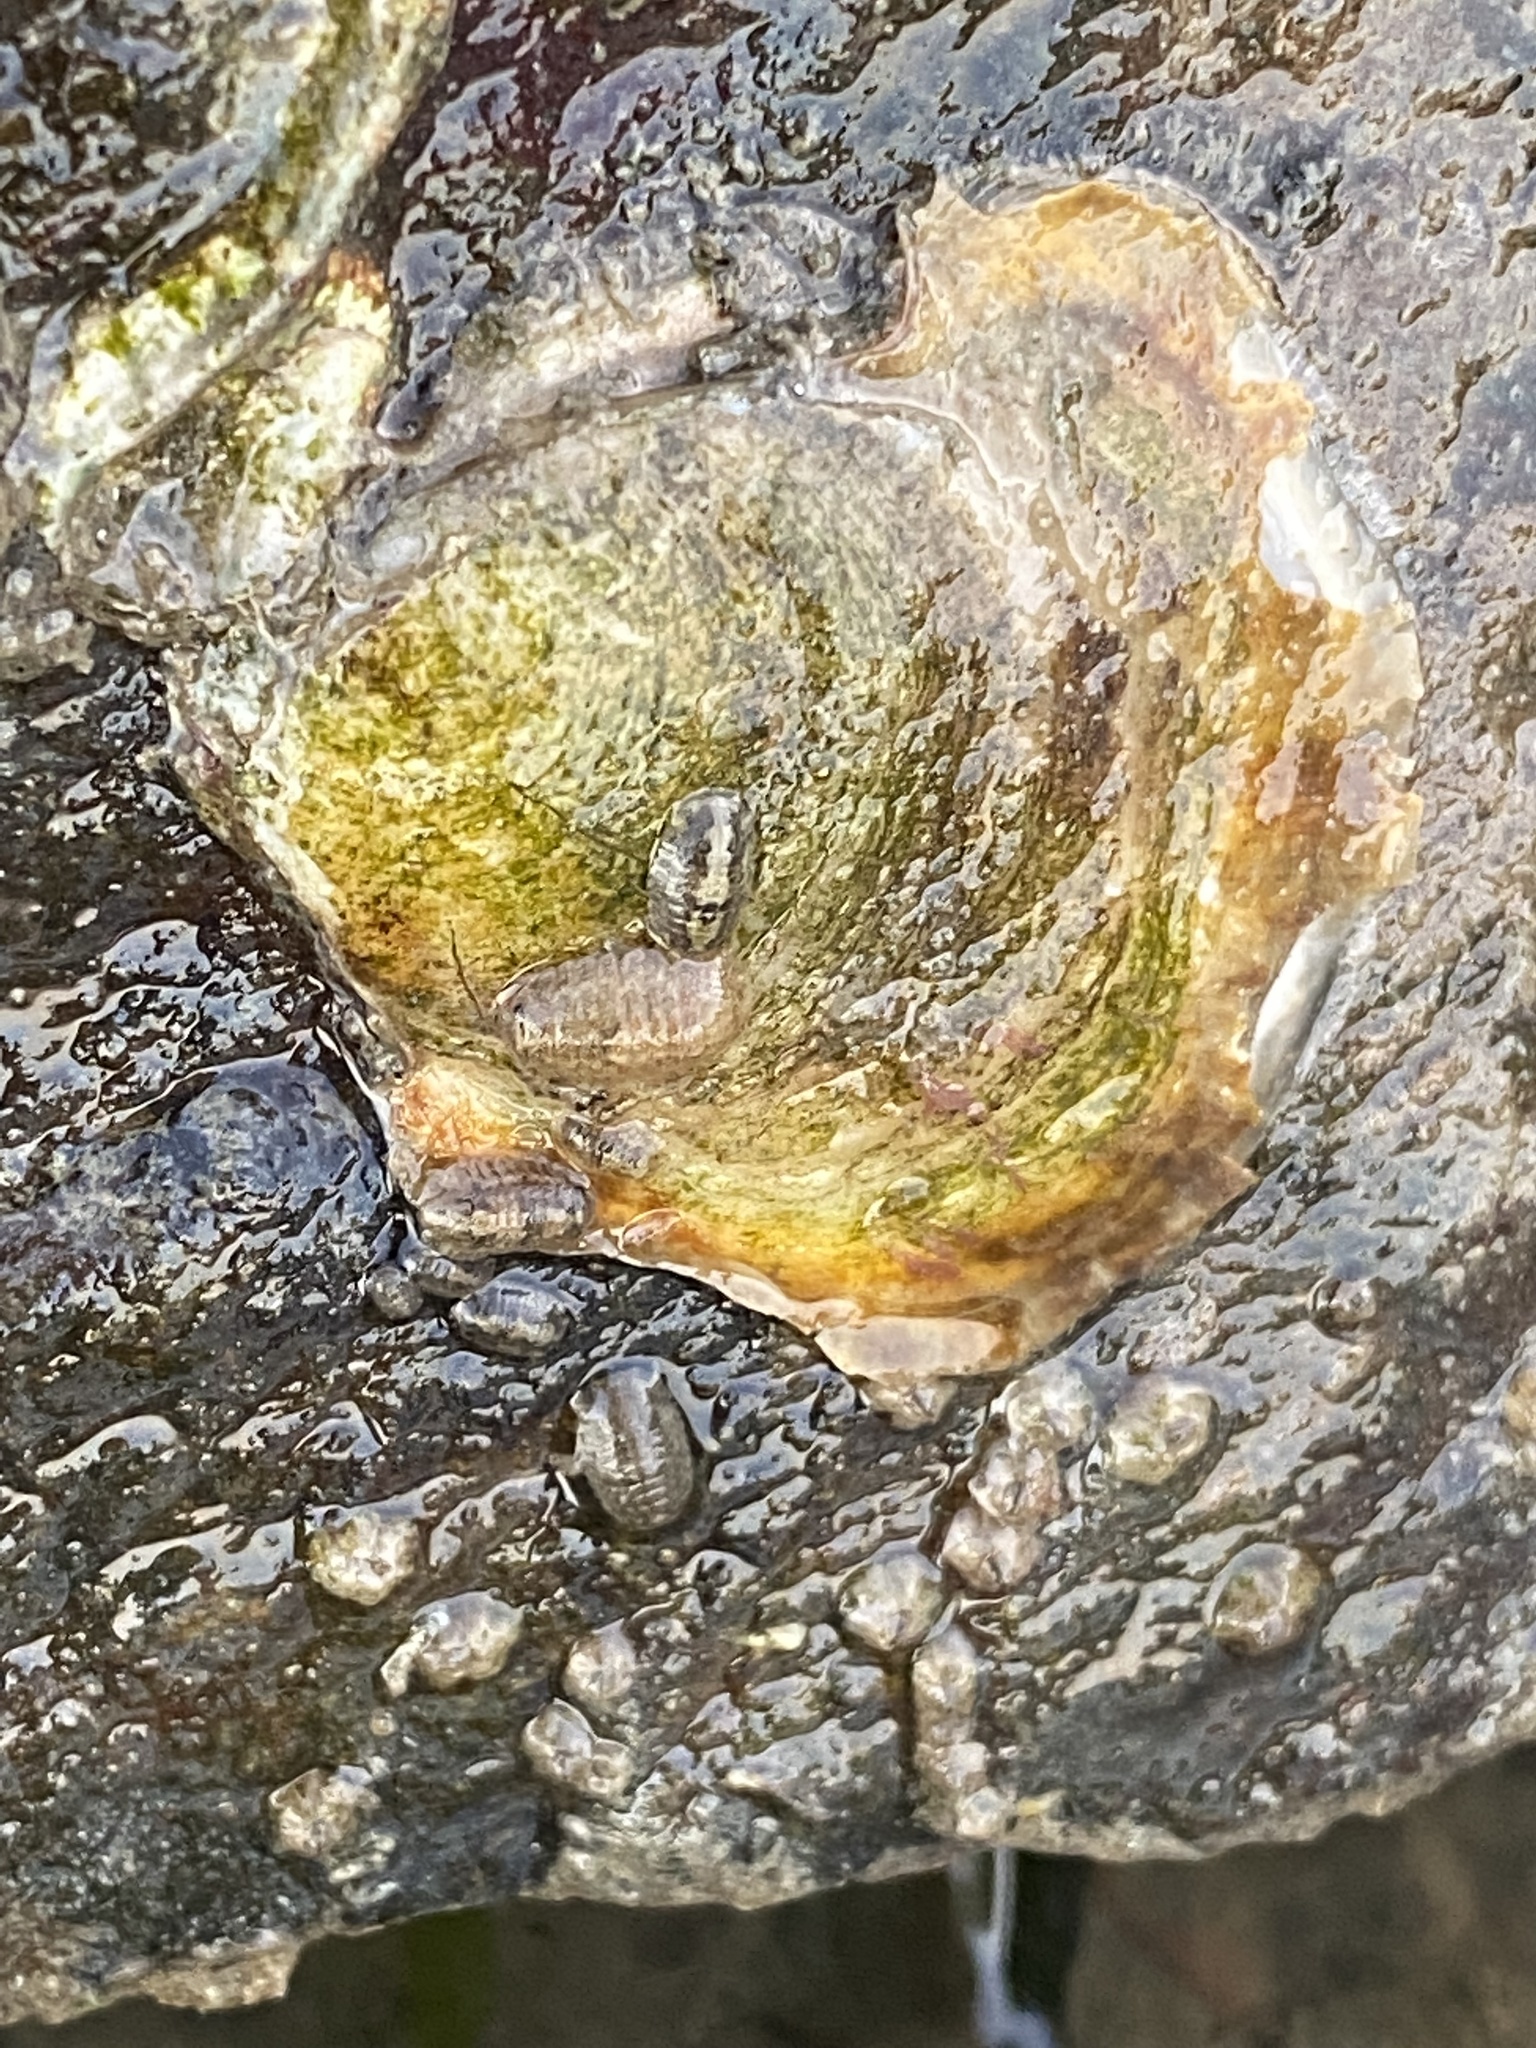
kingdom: Animalia
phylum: Mollusca
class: Bivalvia
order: Ostreida
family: Ostreidae
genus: Ostrea
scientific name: Ostrea lurida
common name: Olympia flat oyster
